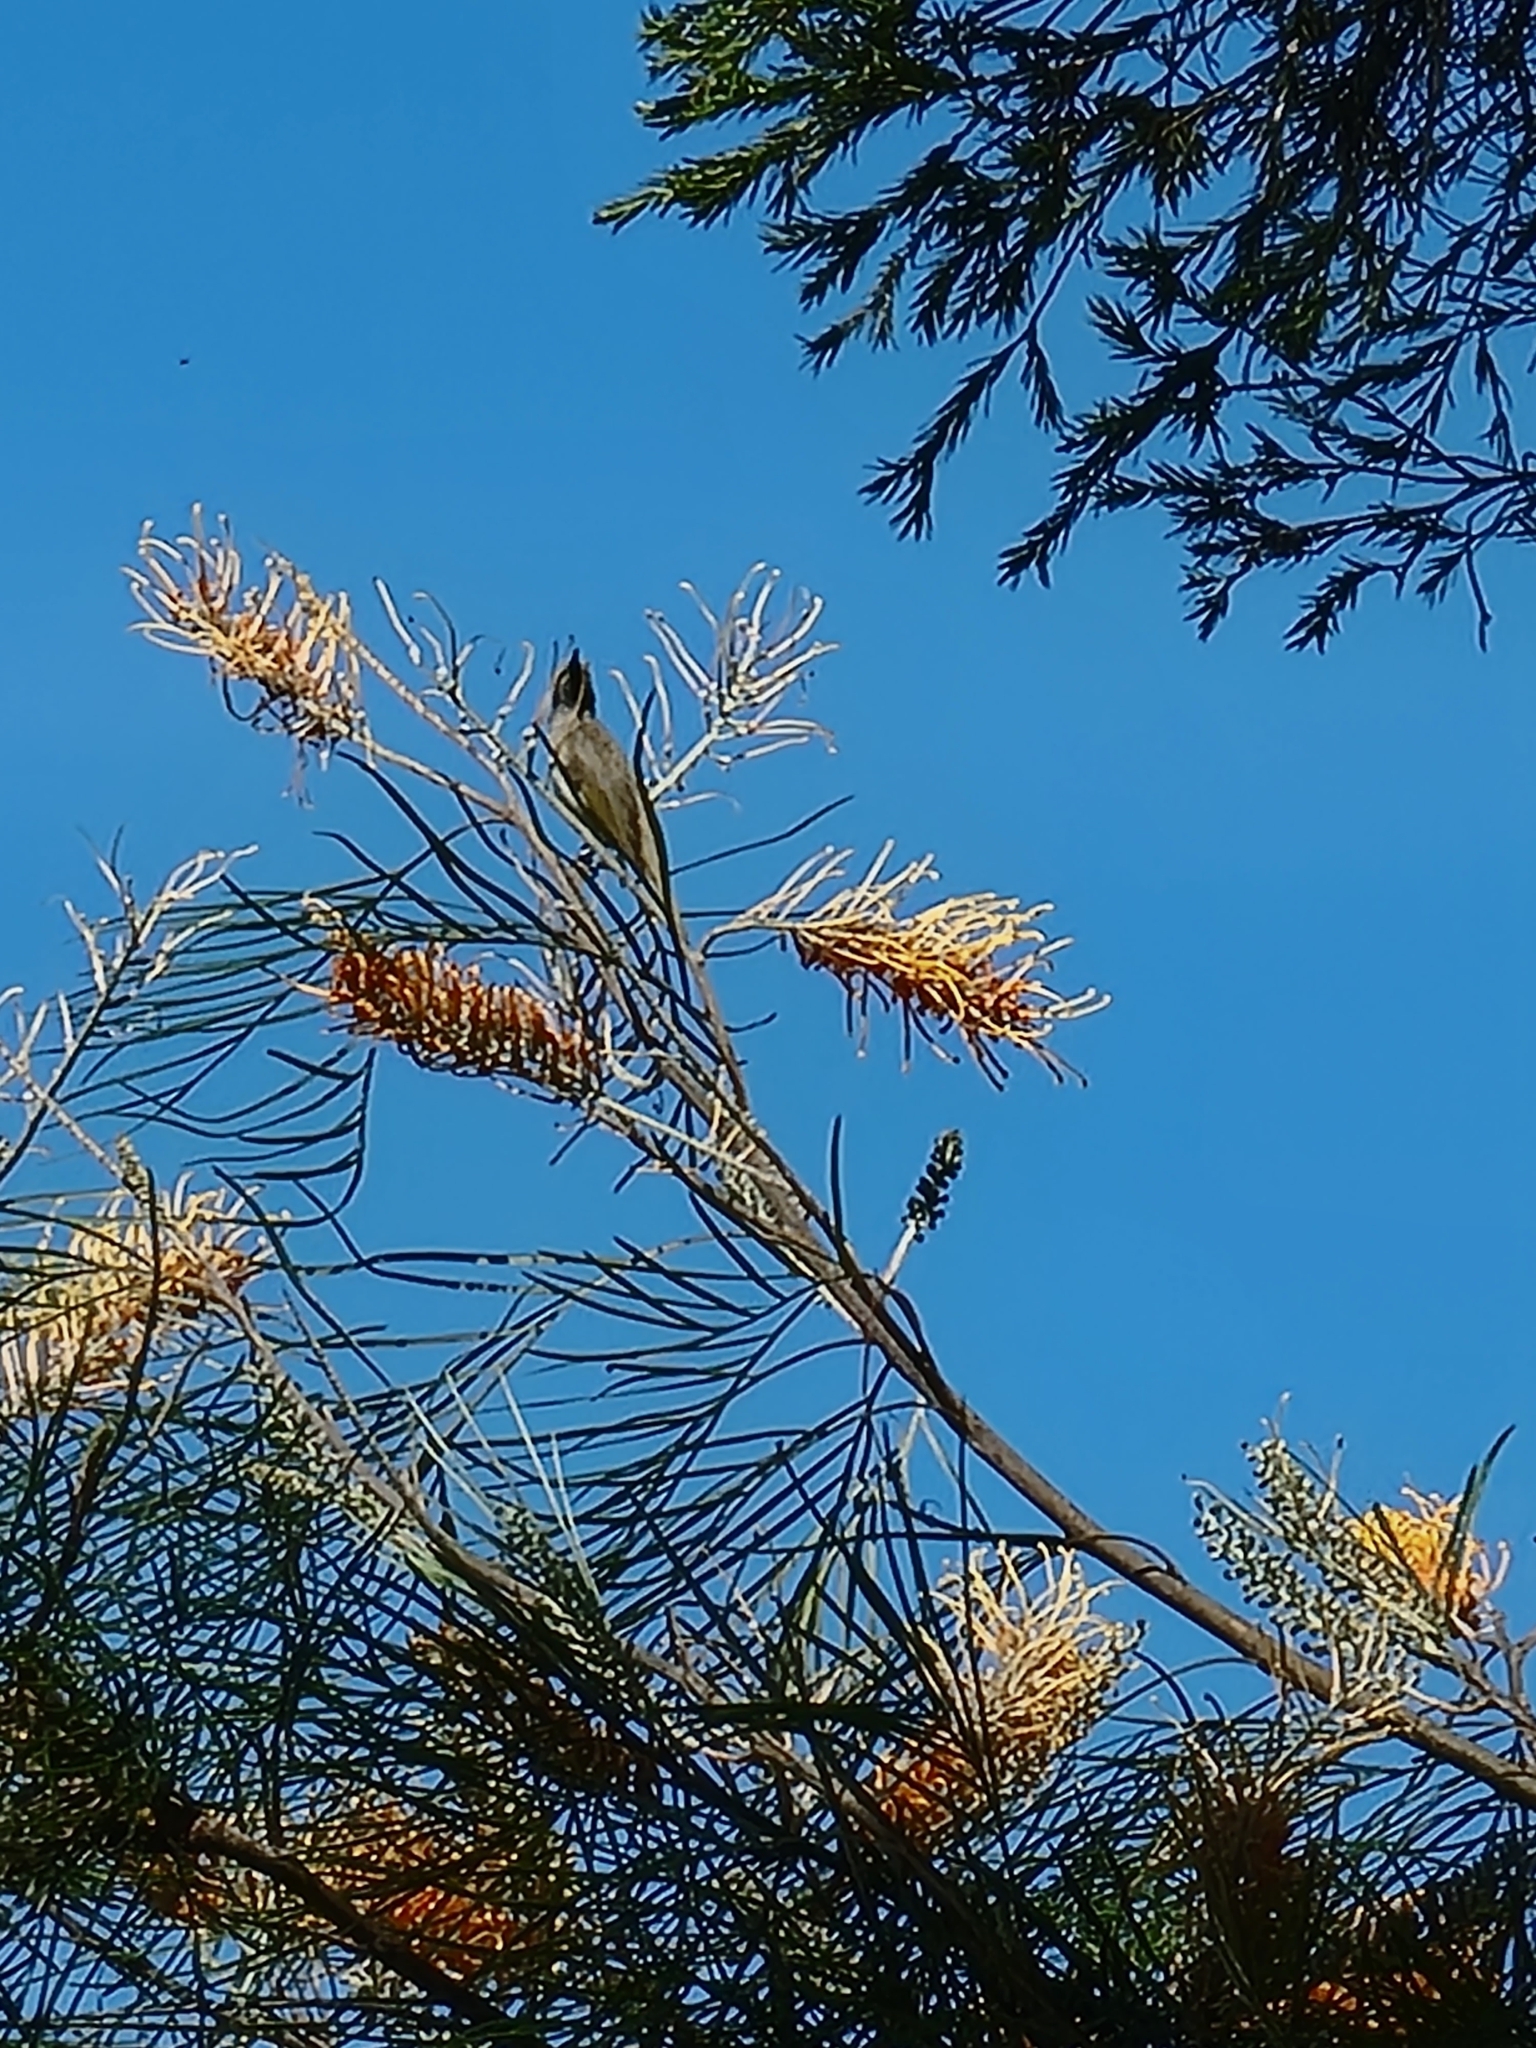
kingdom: Animalia
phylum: Chordata
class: Aves
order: Passeriformes
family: Meliphagidae
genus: Lichmera
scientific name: Lichmera indistincta
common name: Brown honeyeater
